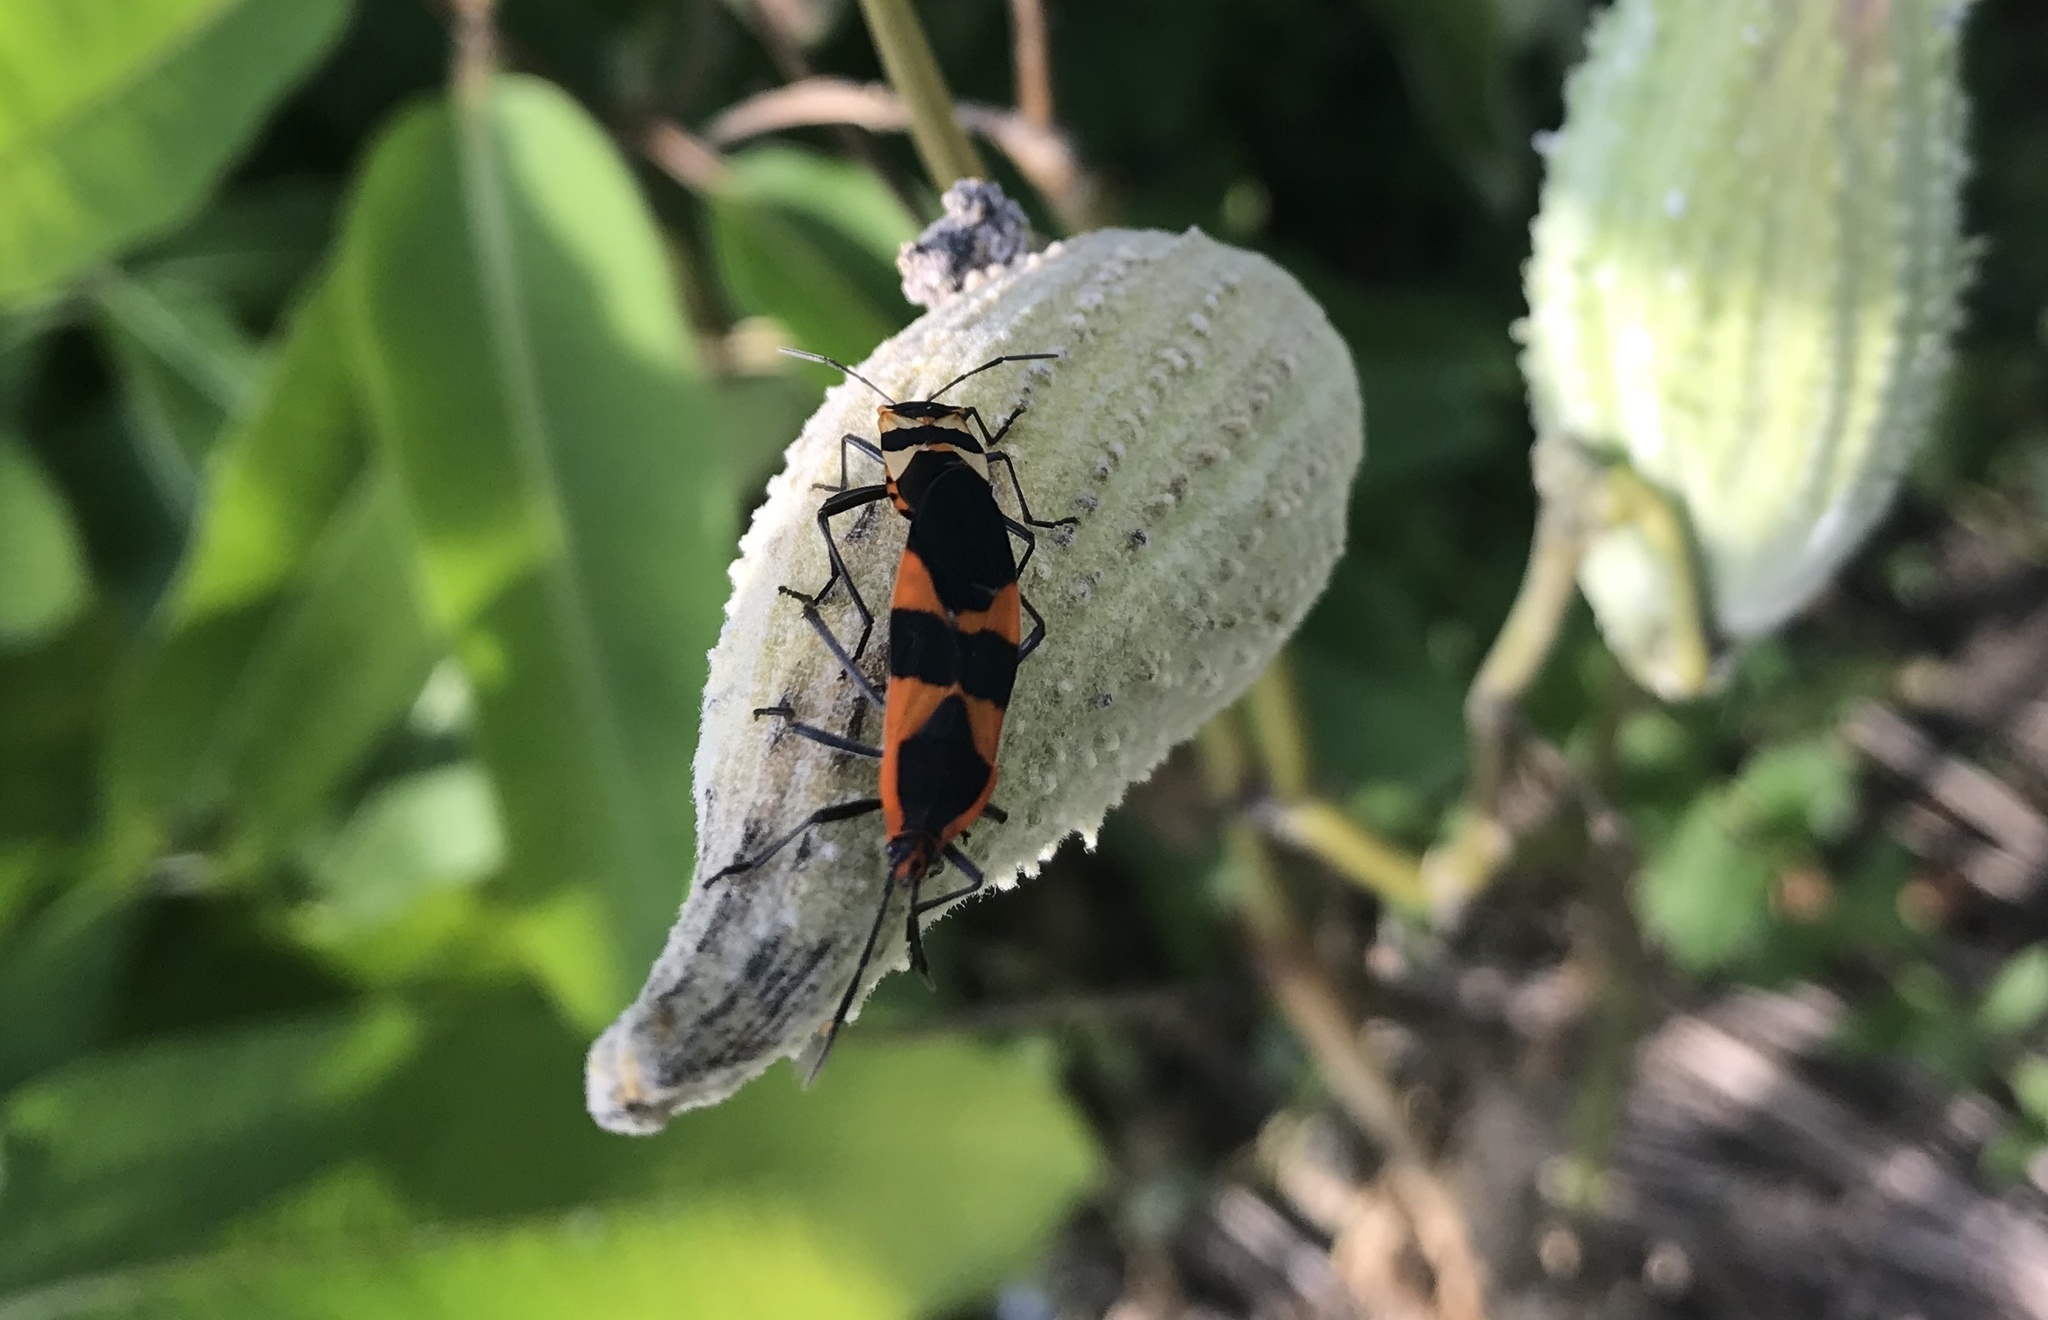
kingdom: Animalia
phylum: Arthropoda
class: Insecta
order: Hemiptera
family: Lygaeidae
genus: Oncopeltus
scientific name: Oncopeltus fasciatus
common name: Large milkweed bug
